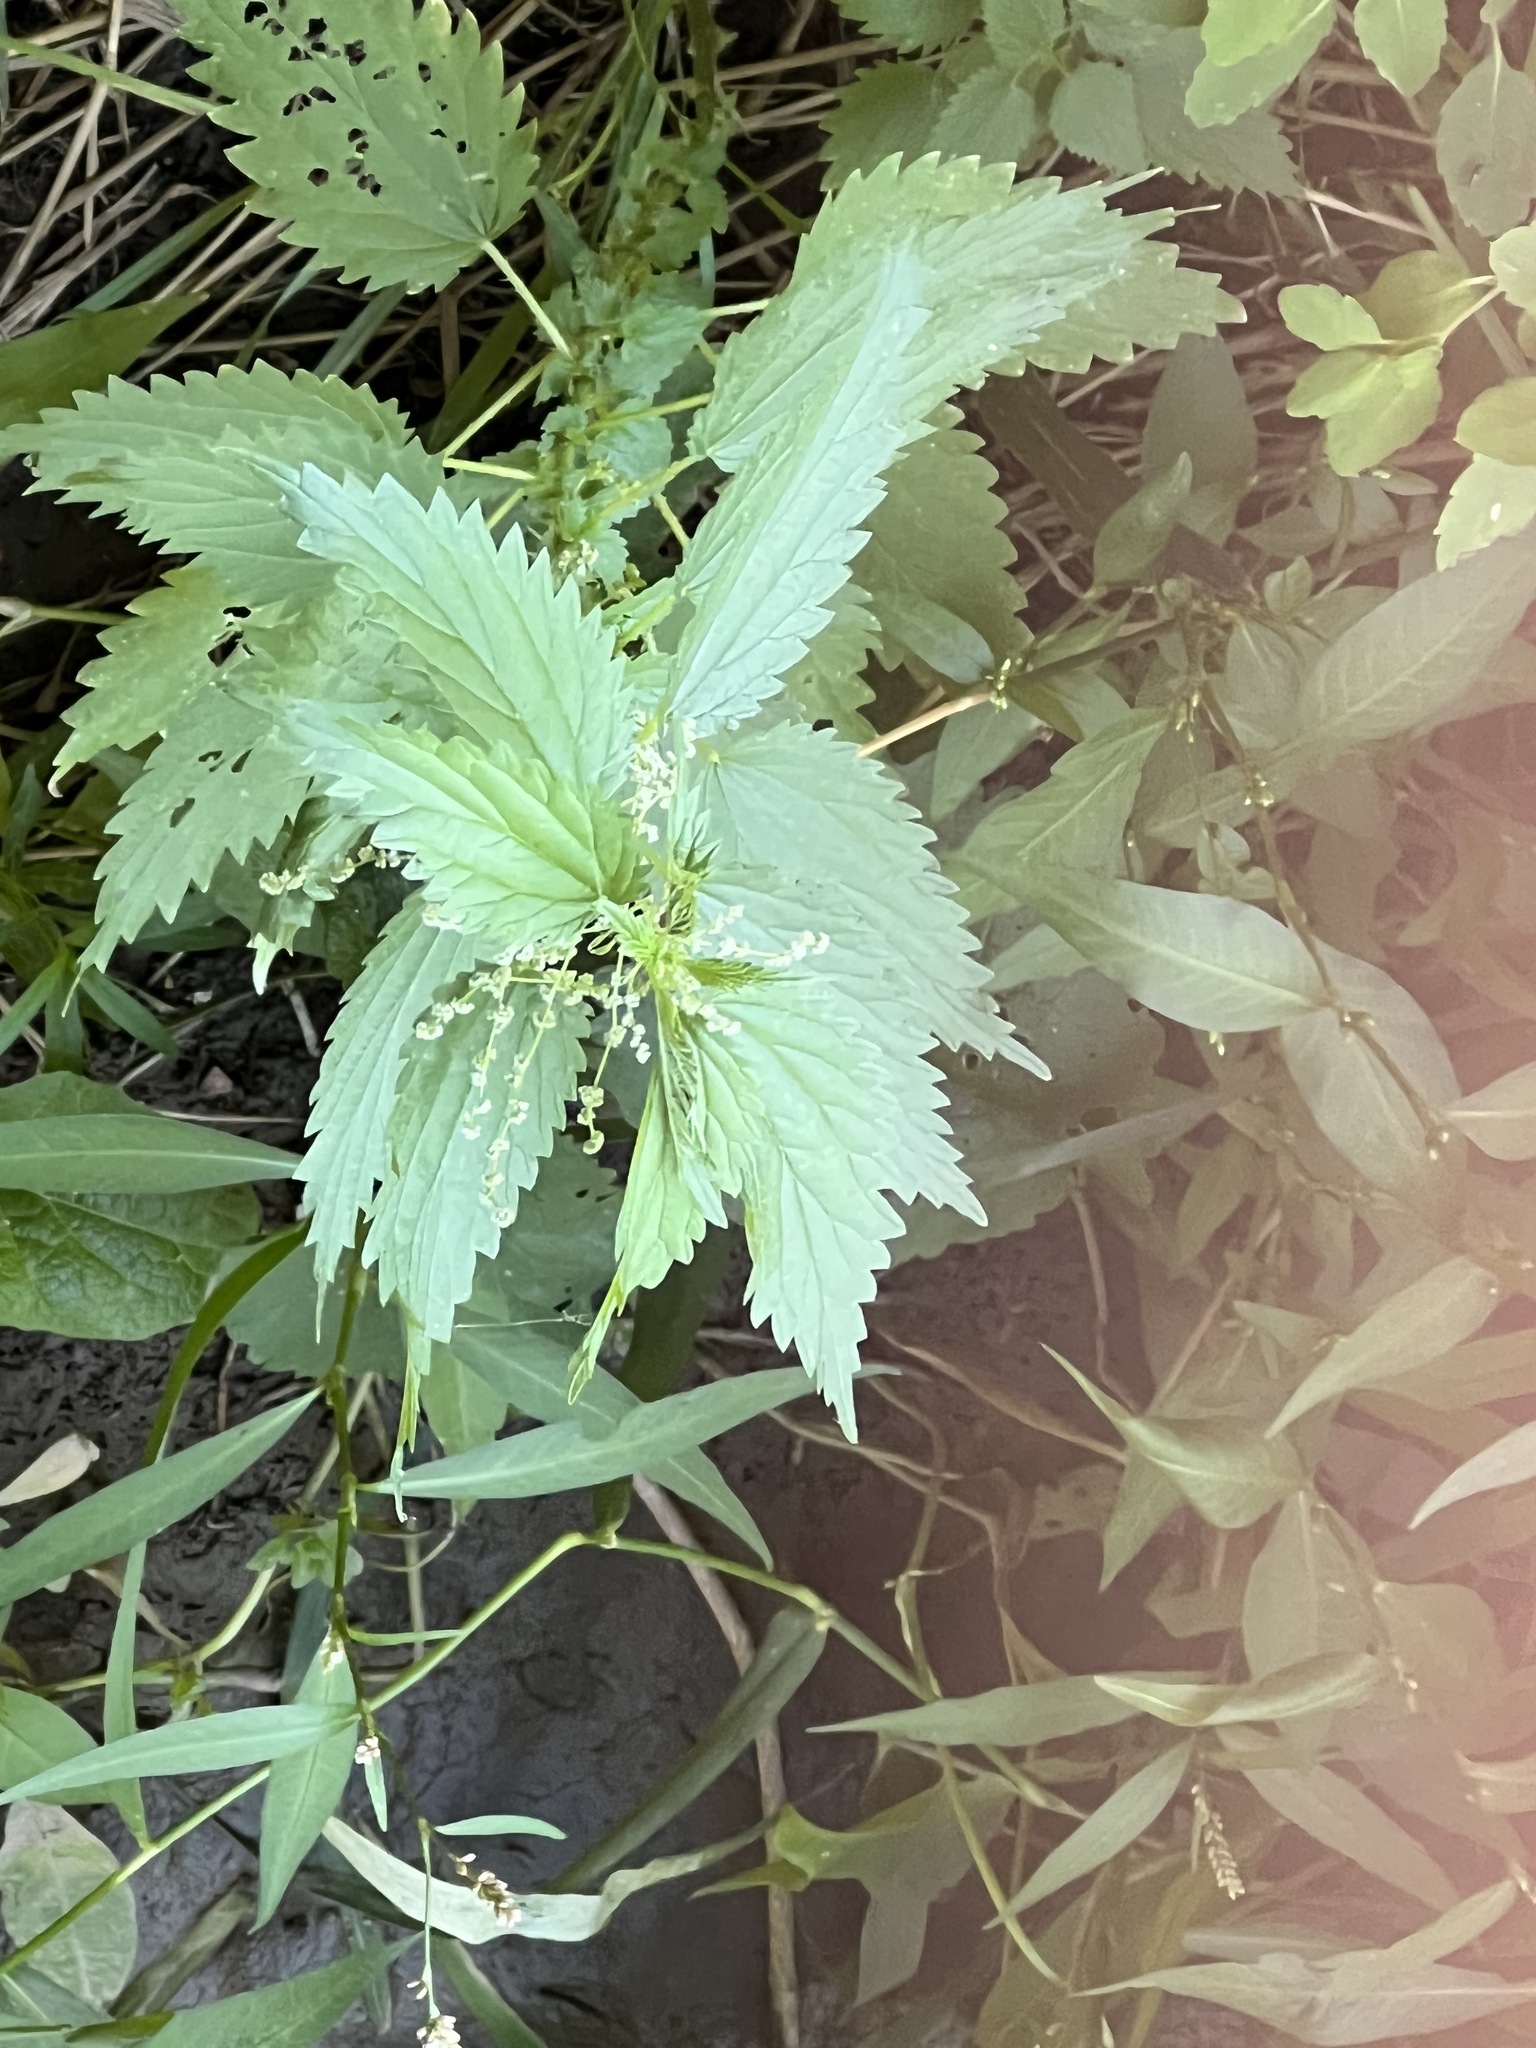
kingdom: Plantae
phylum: Tracheophyta
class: Magnoliopsida
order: Rosales
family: Urticaceae
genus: Urtica
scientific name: Urtica gracilis
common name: Slender stinging nettle
